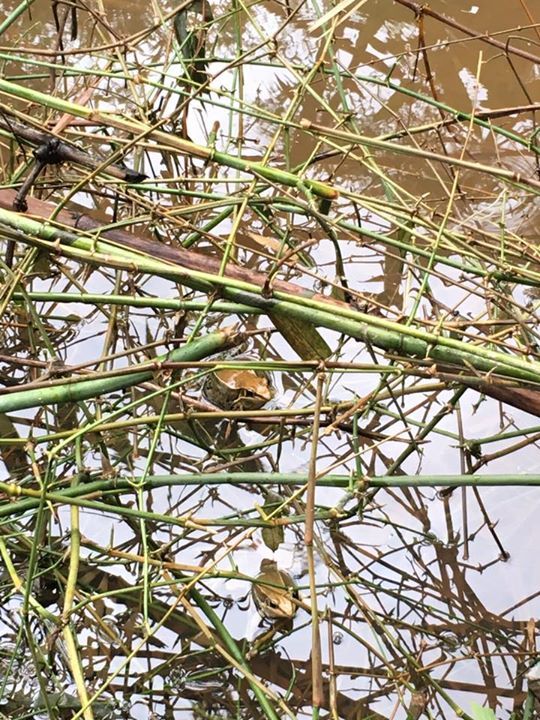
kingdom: Animalia
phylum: Chordata
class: Amphibia
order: Anura
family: Ranidae
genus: Sylvirana
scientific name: Sylvirana guentheri
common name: Guenther's amoy frog
